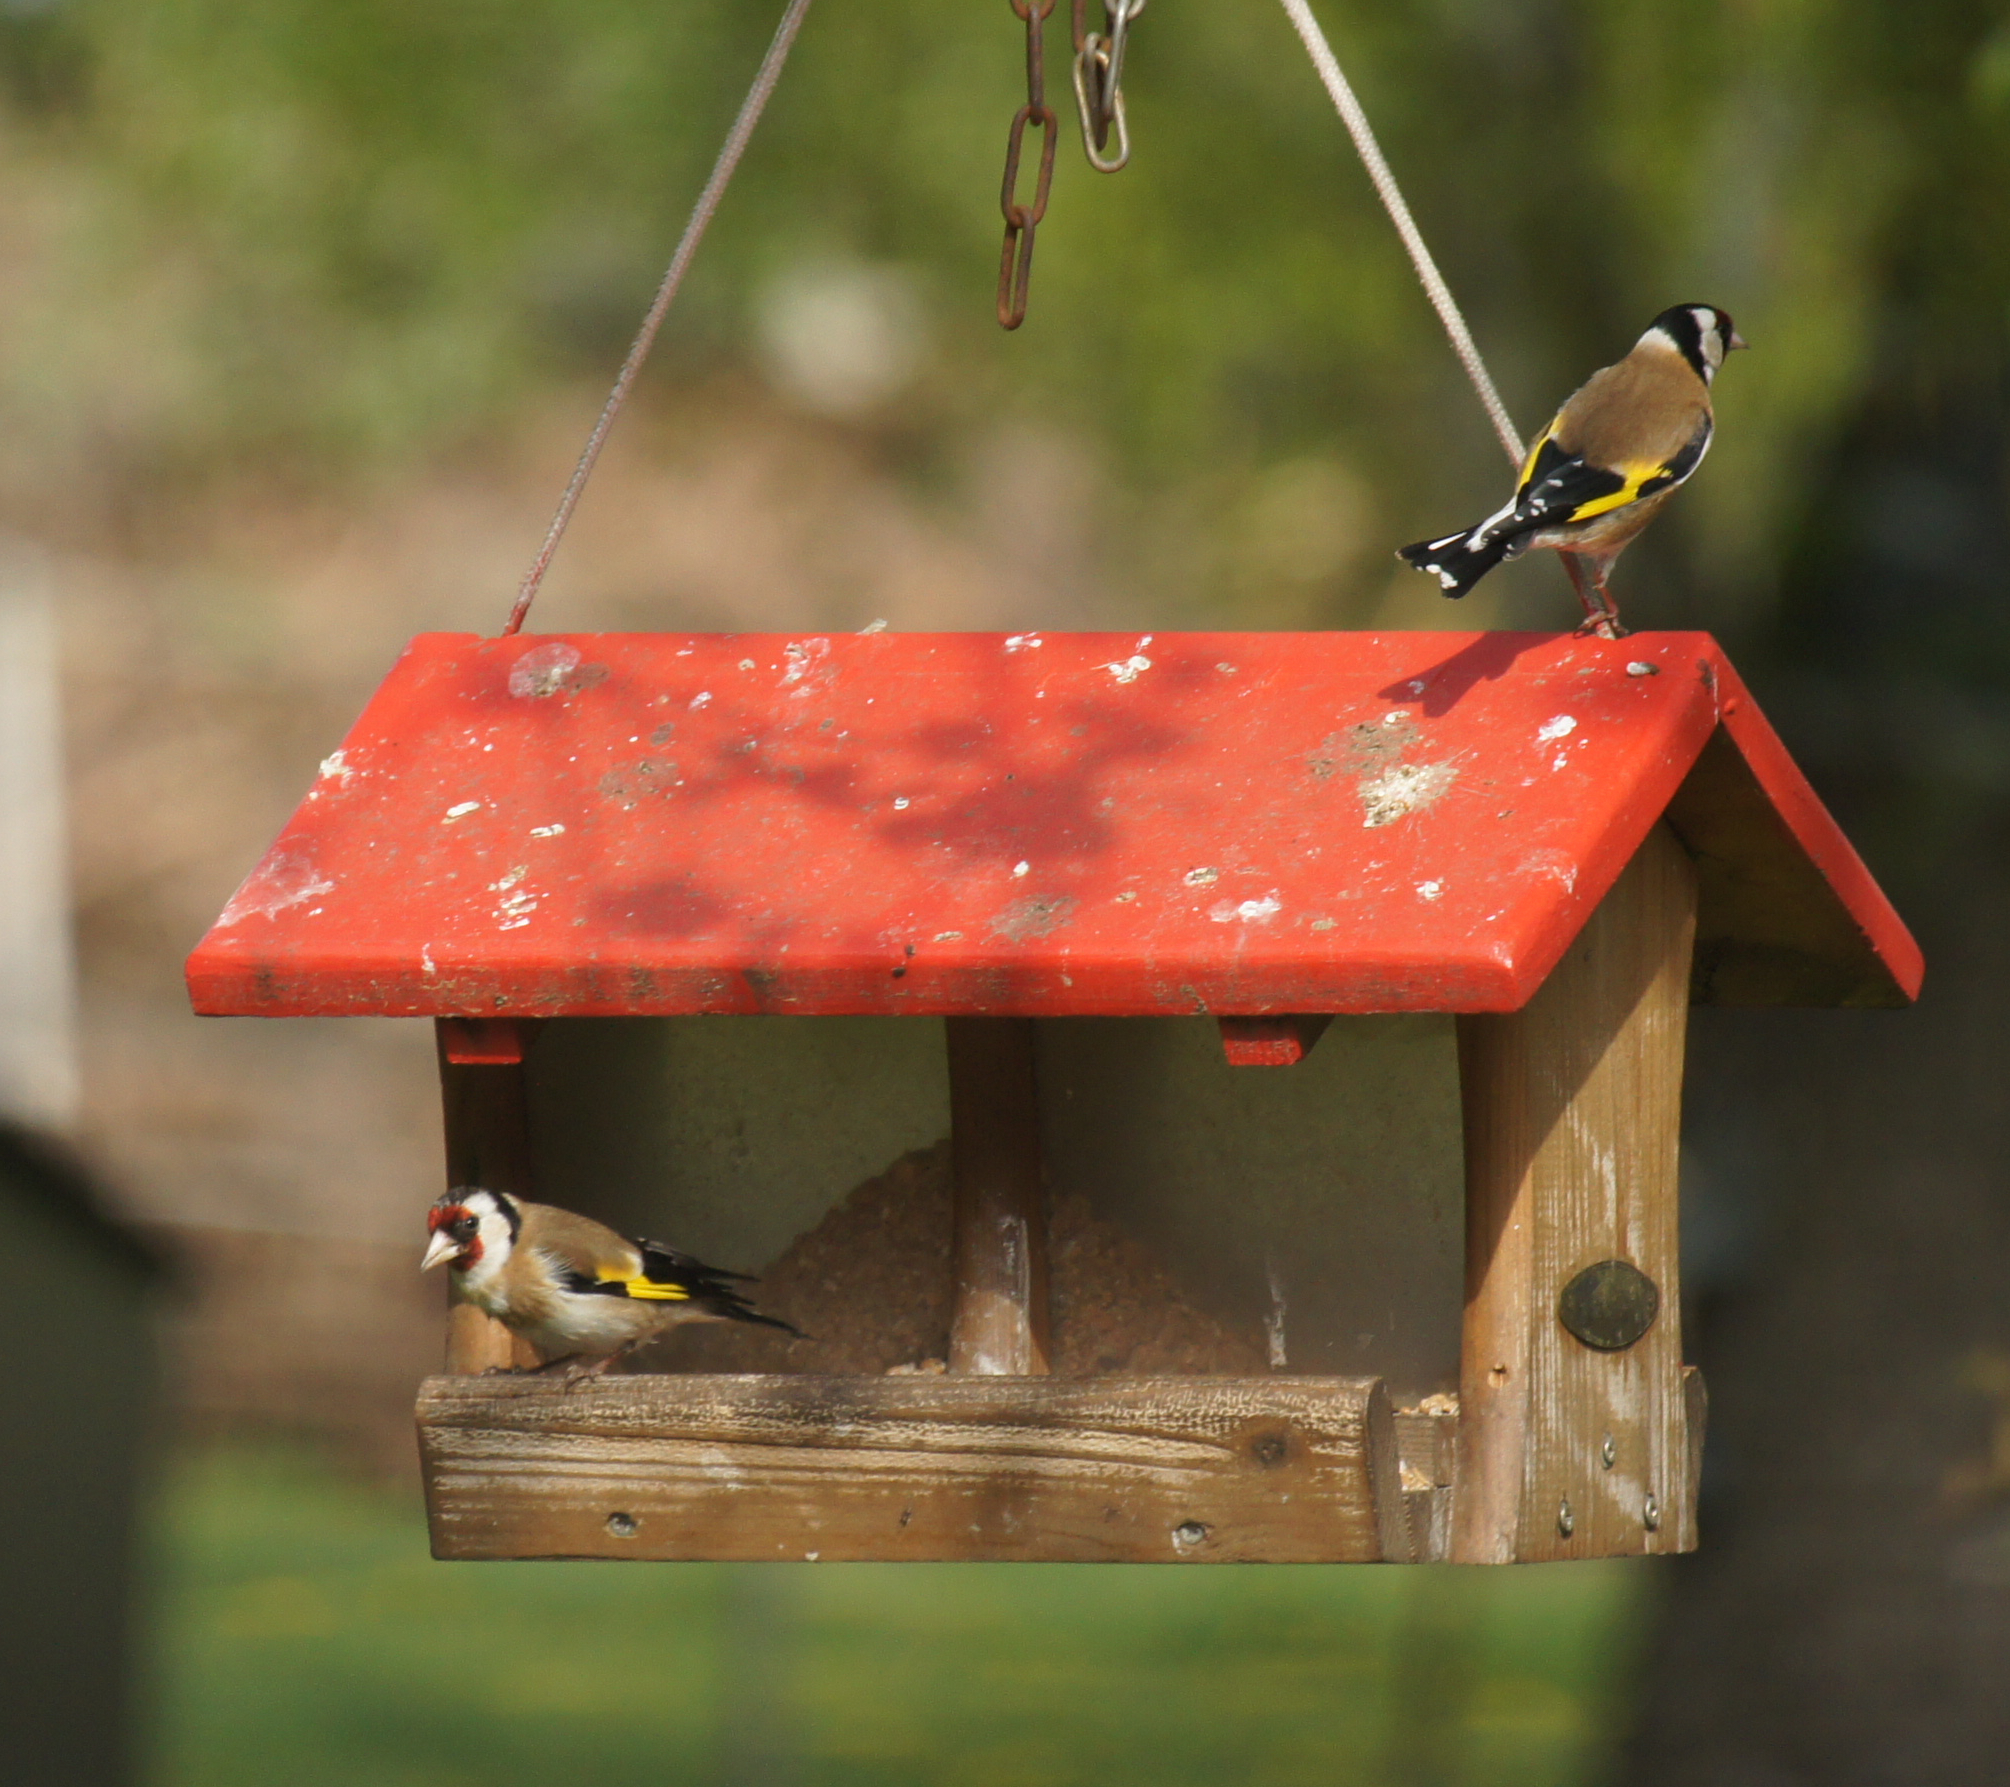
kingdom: Animalia
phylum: Chordata
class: Aves
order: Passeriformes
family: Fringillidae
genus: Carduelis
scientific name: Carduelis carduelis
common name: European goldfinch
